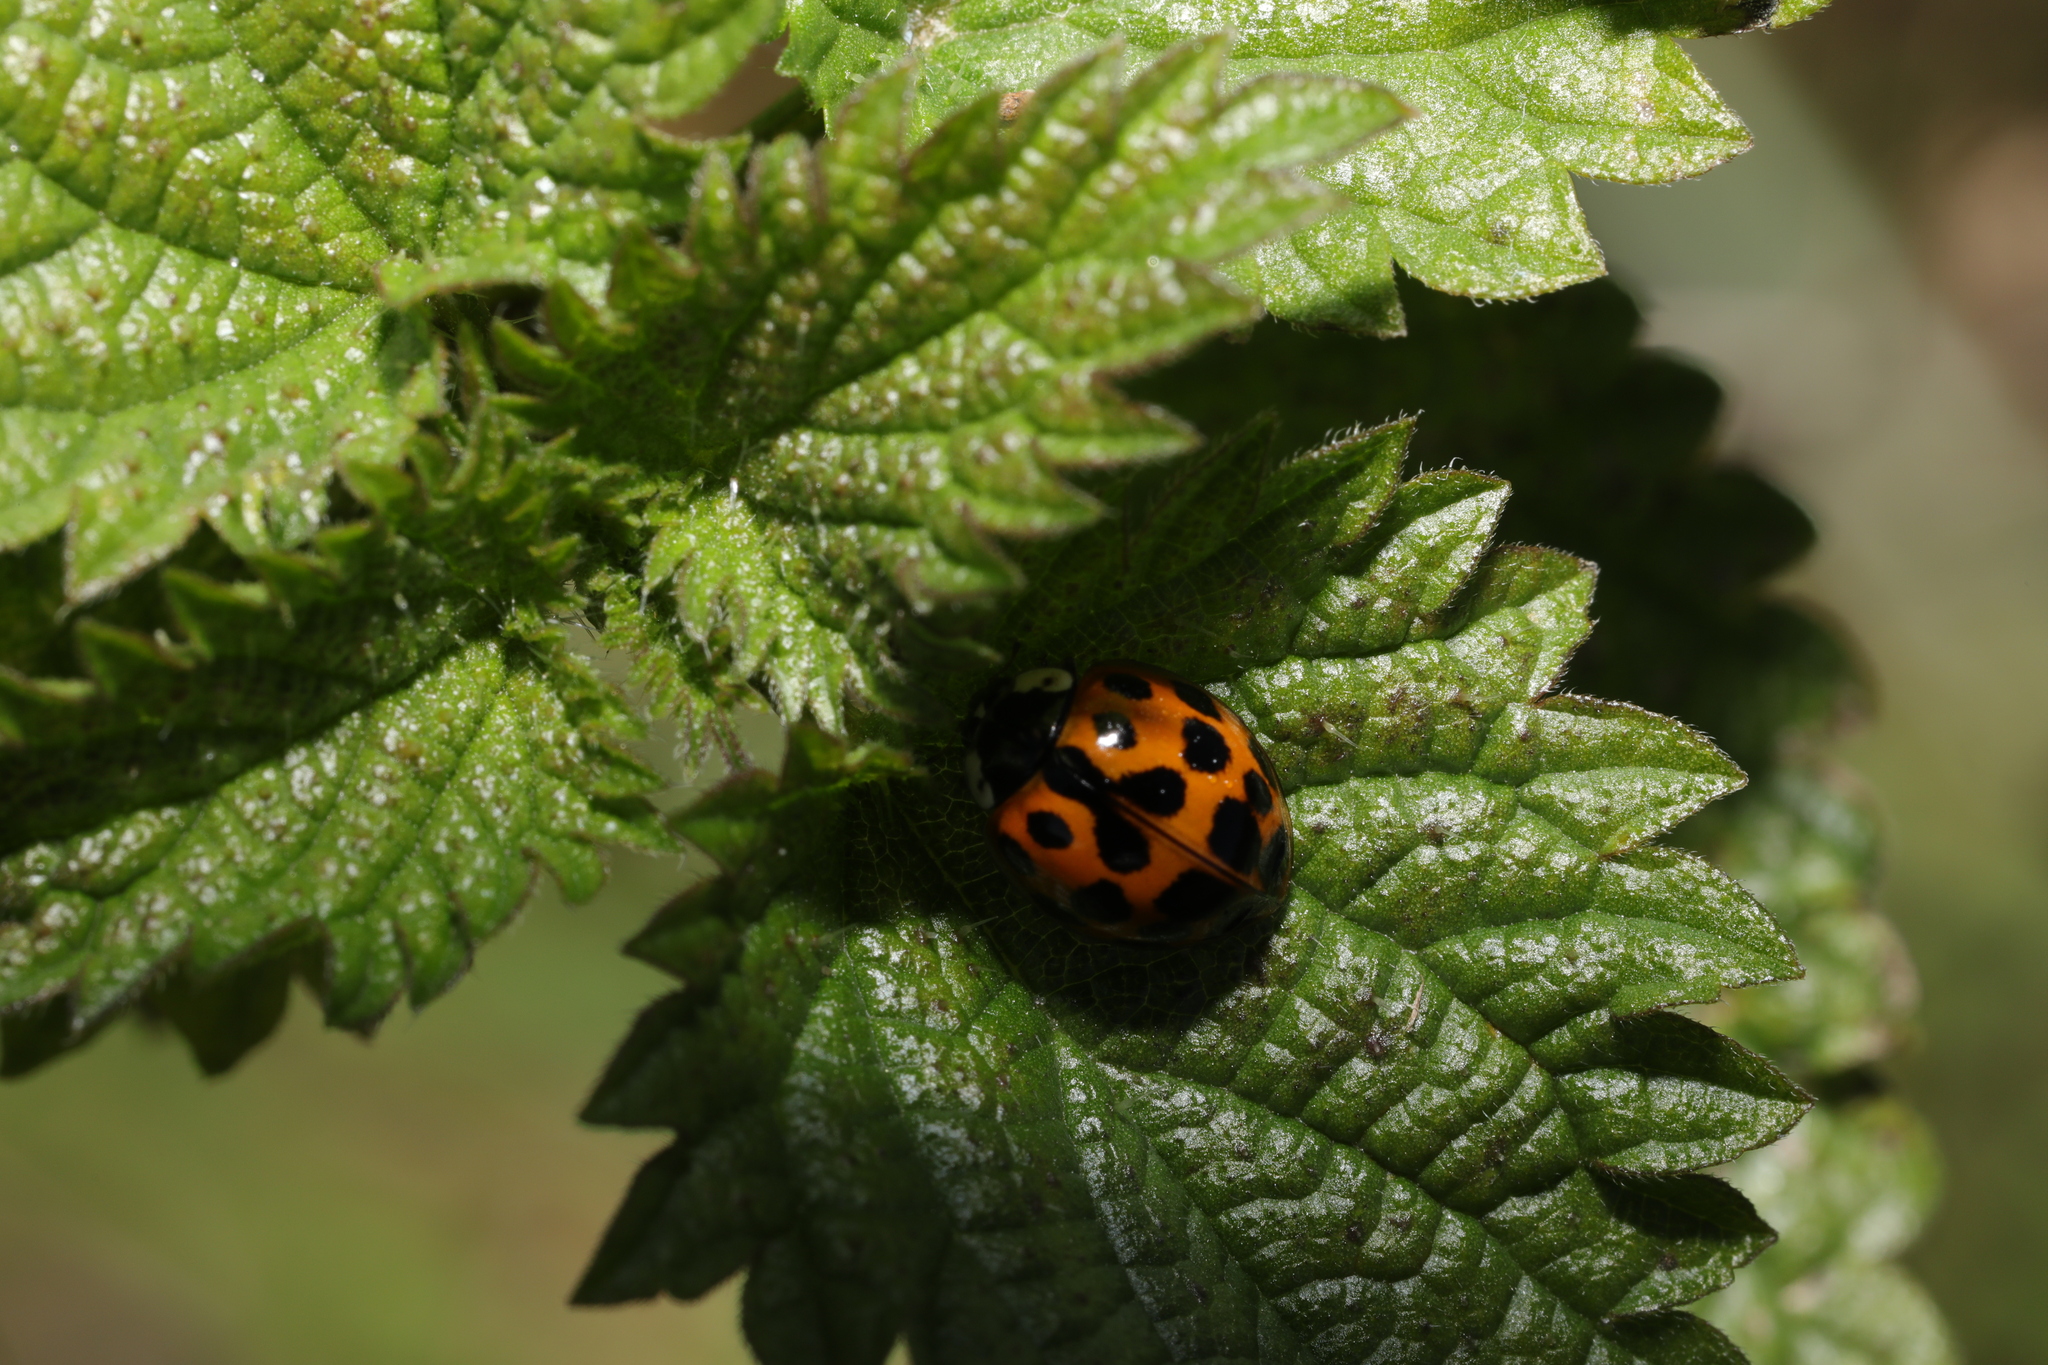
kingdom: Animalia
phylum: Arthropoda
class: Insecta
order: Coleoptera
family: Coccinellidae
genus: Harmonia
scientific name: Harmonia axyridis
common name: Harlequin ladybird
